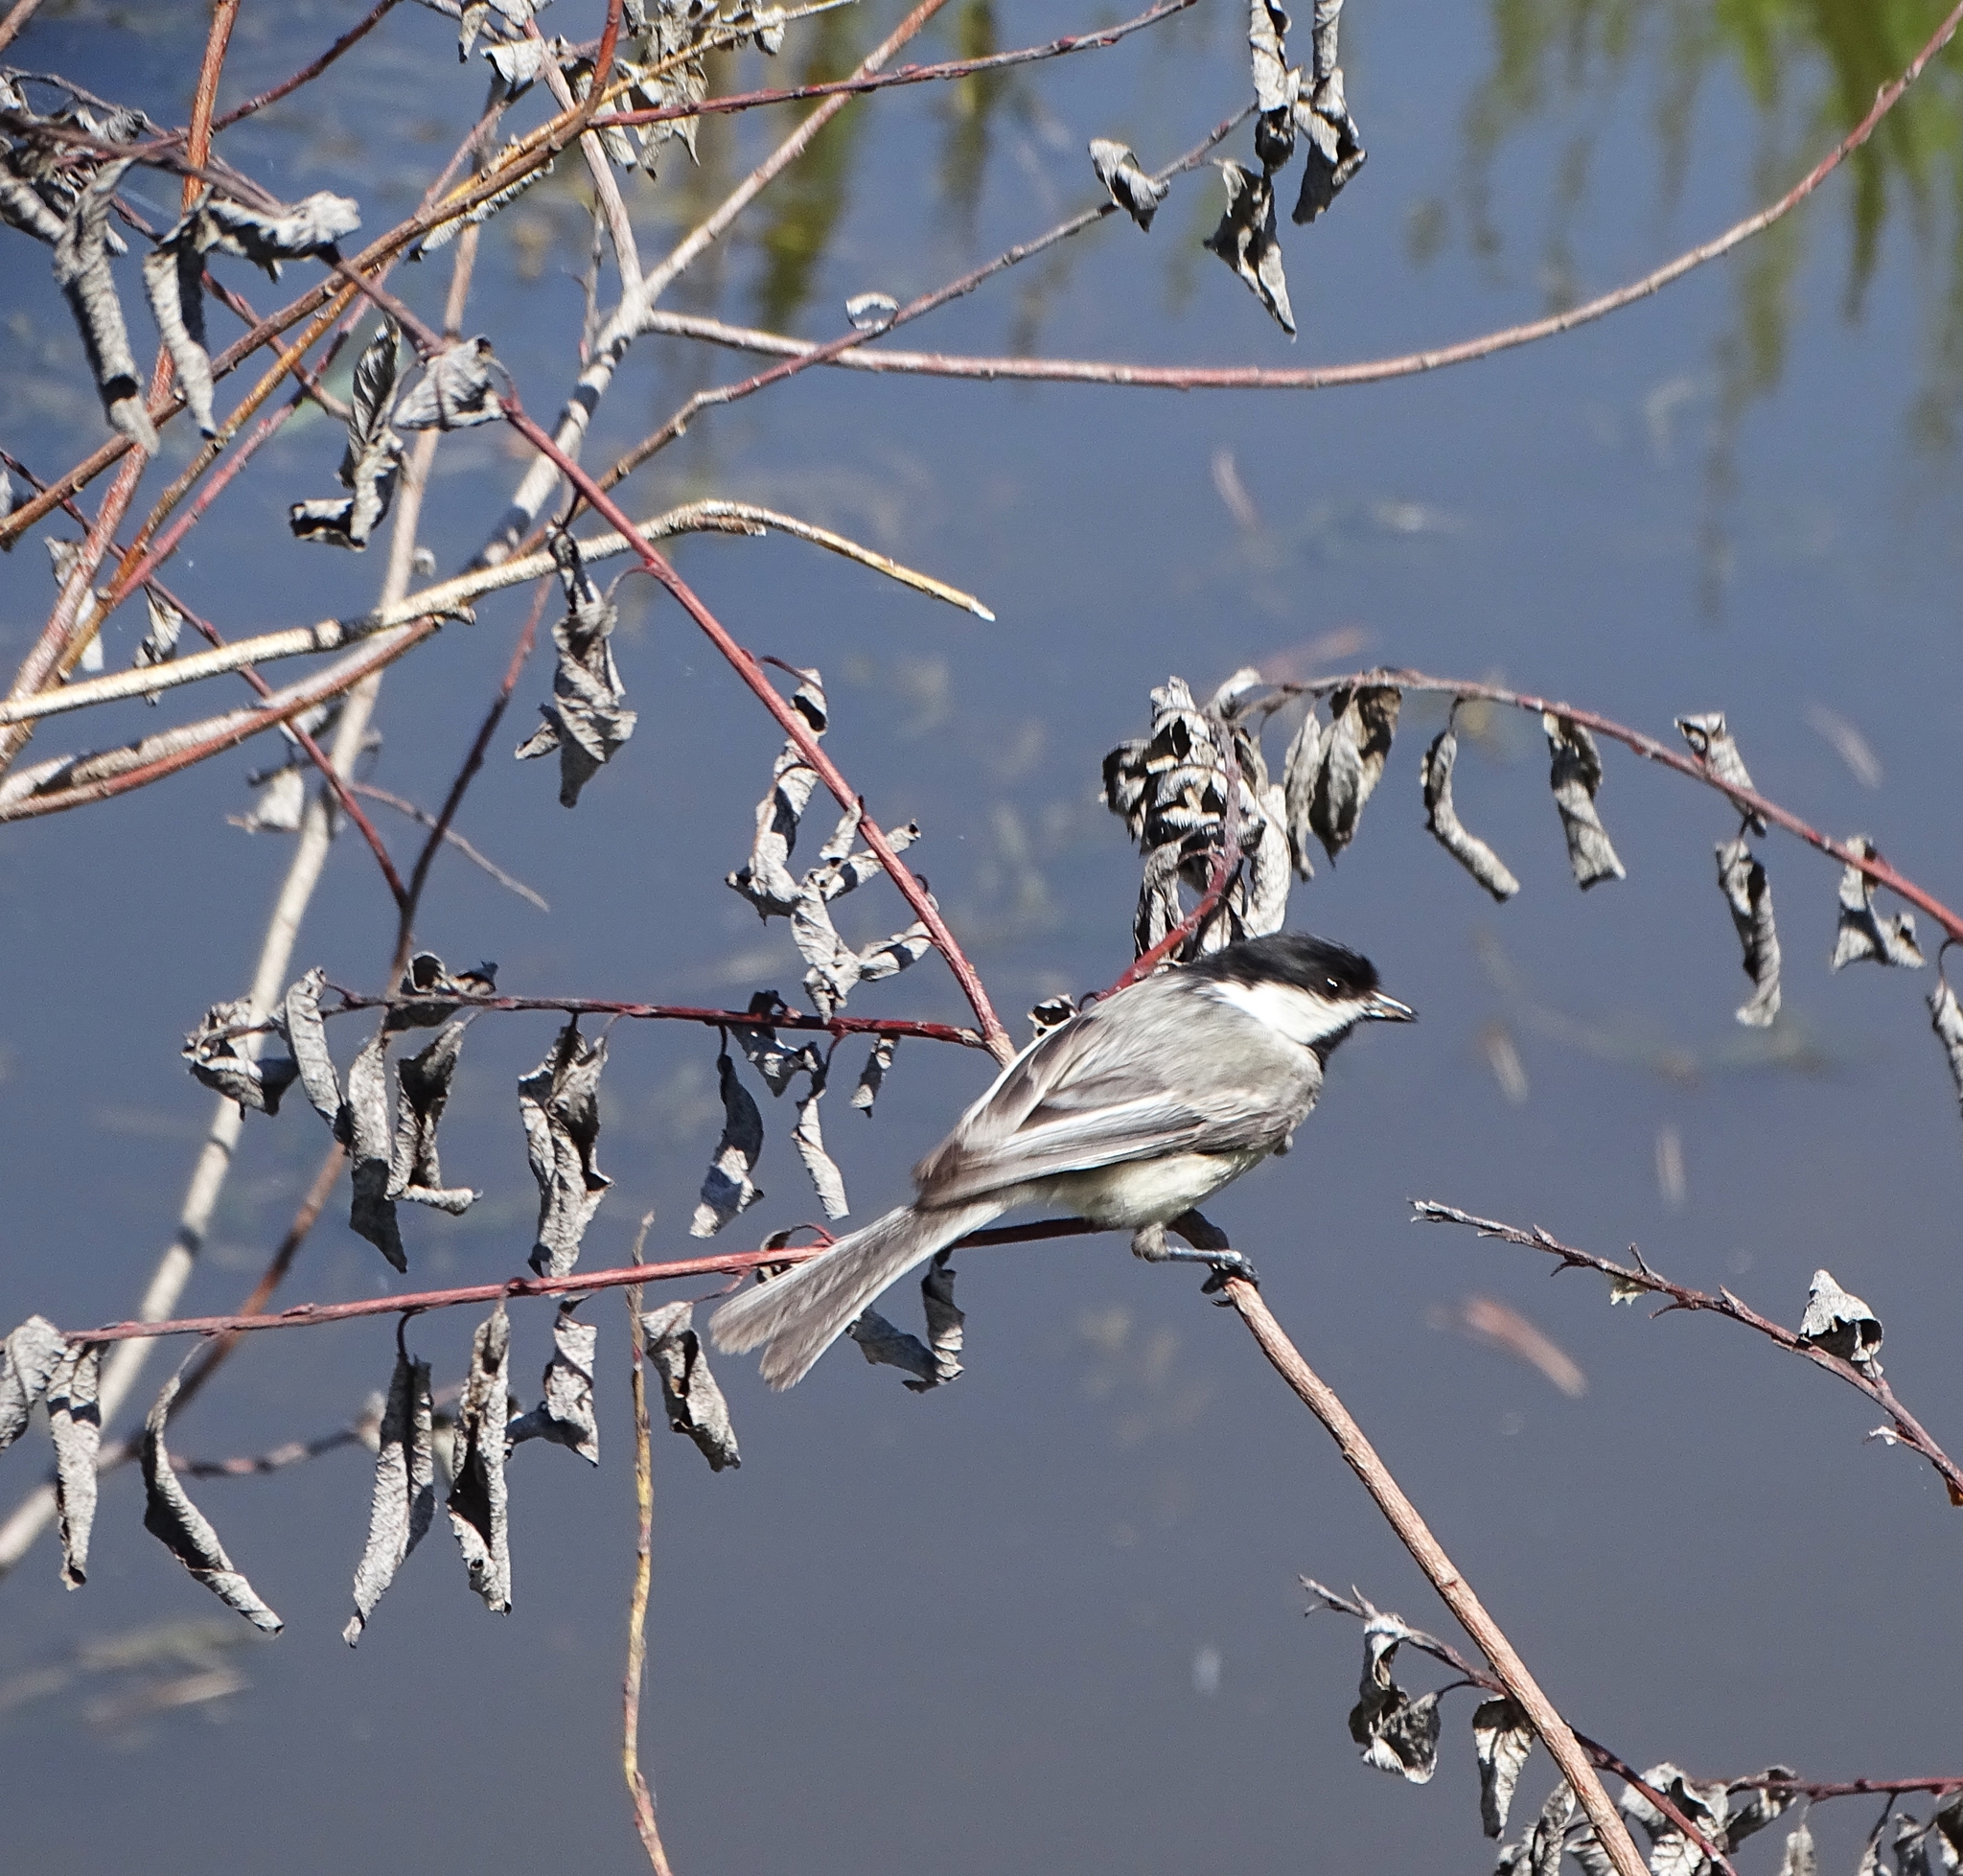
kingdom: Animalia
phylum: Chordata
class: Aves
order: Passeriformes
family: Paridae
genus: Poecile
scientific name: Poecile atricapillus
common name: Black-capped chickadee
